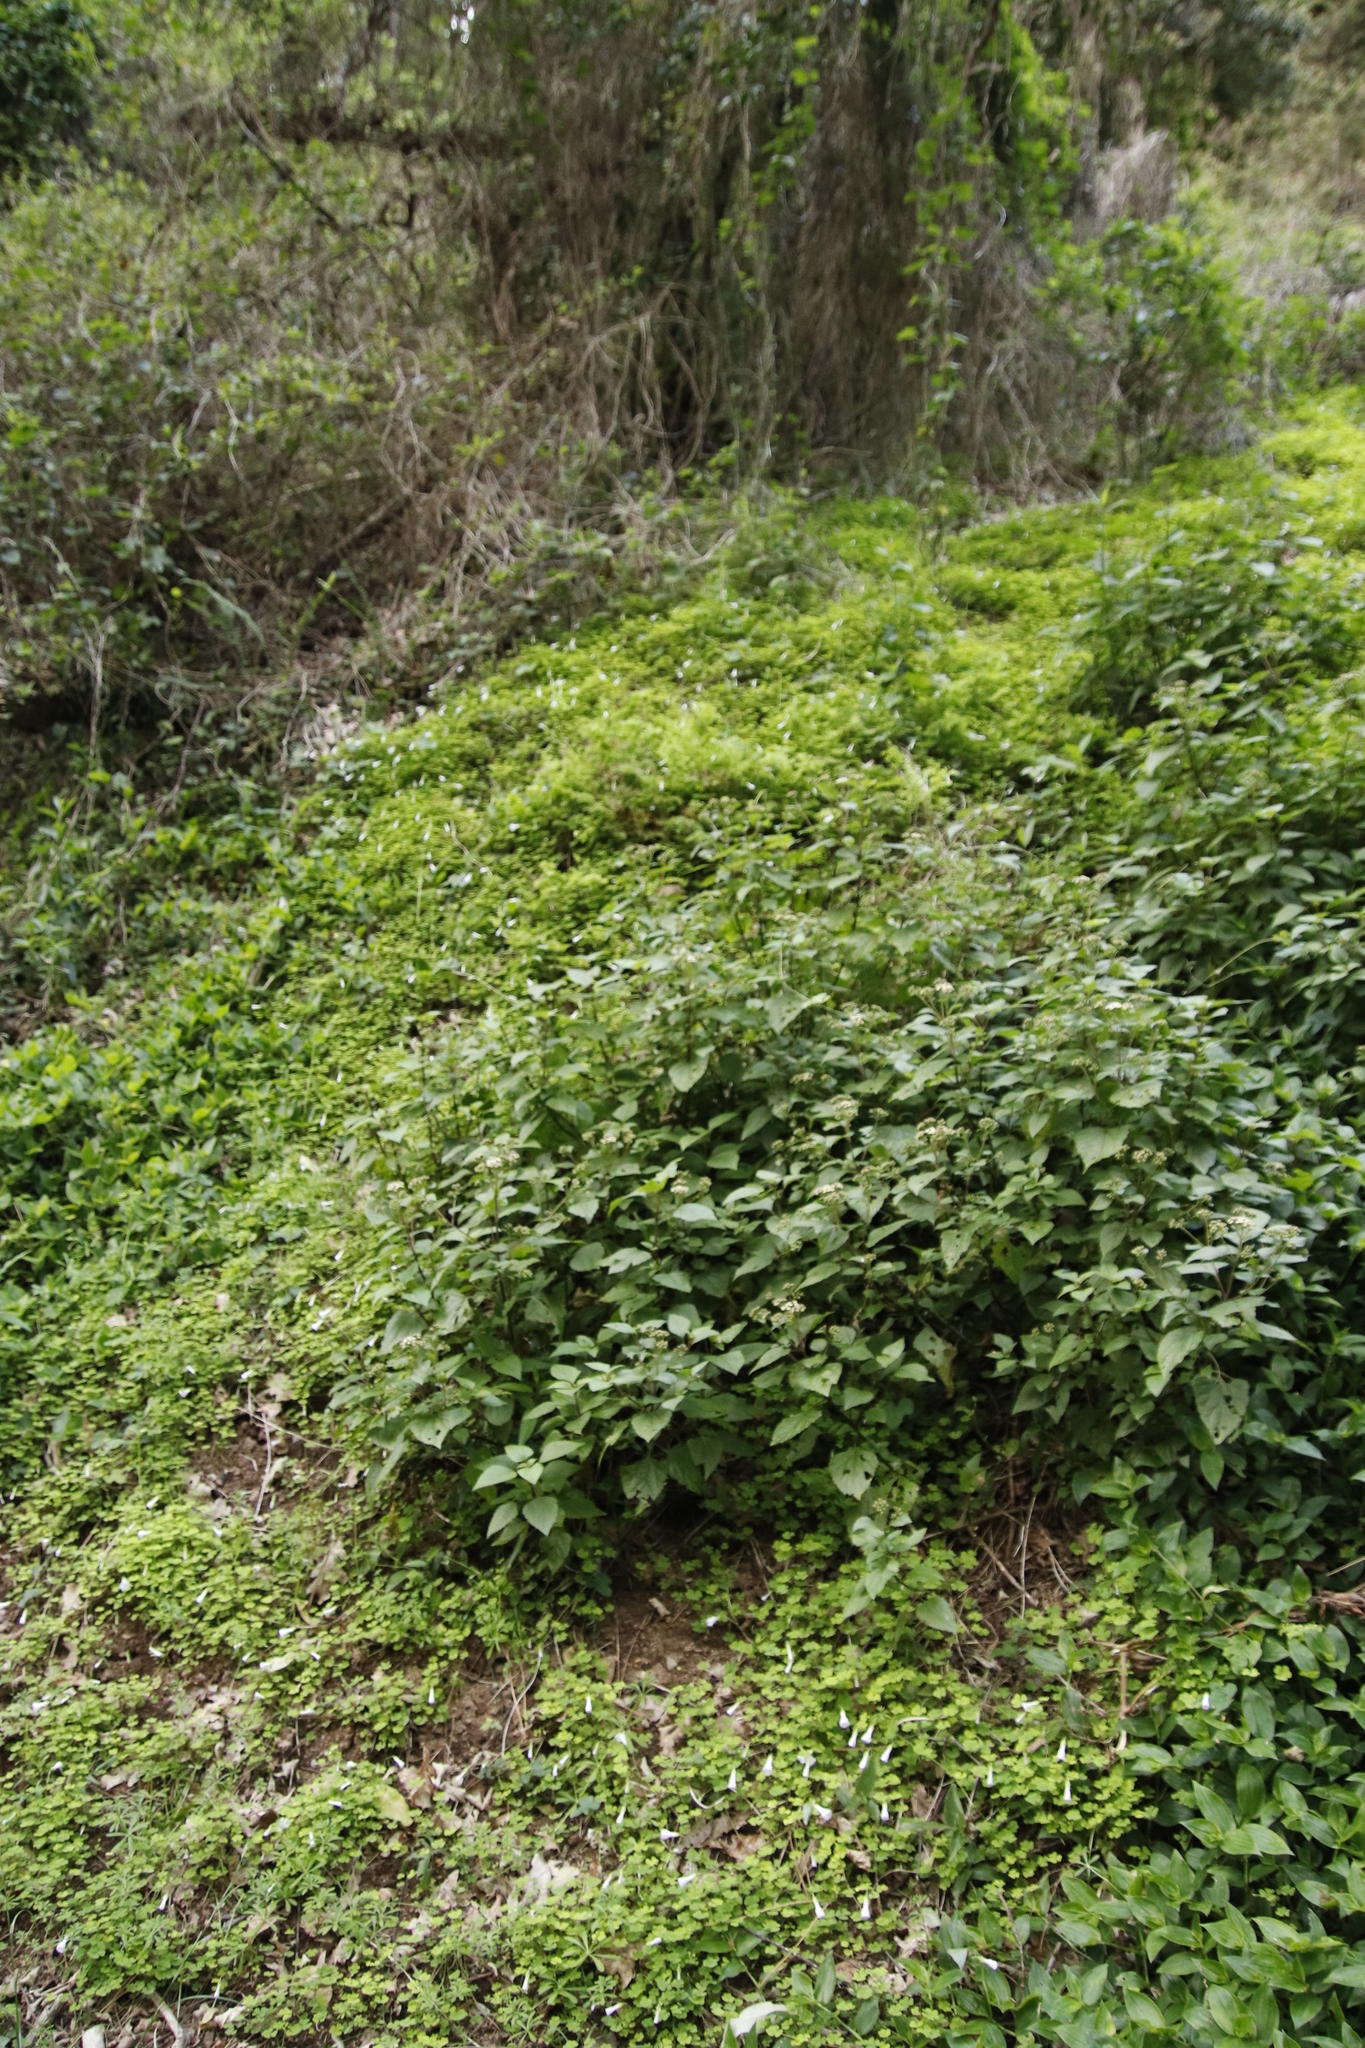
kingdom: Plantae
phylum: Tracheophyta
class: Magnoliopsida
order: Asterales
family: Asteraceae
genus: Ageratina
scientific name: Ageratina adenophora
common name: Sticky snakeroot
